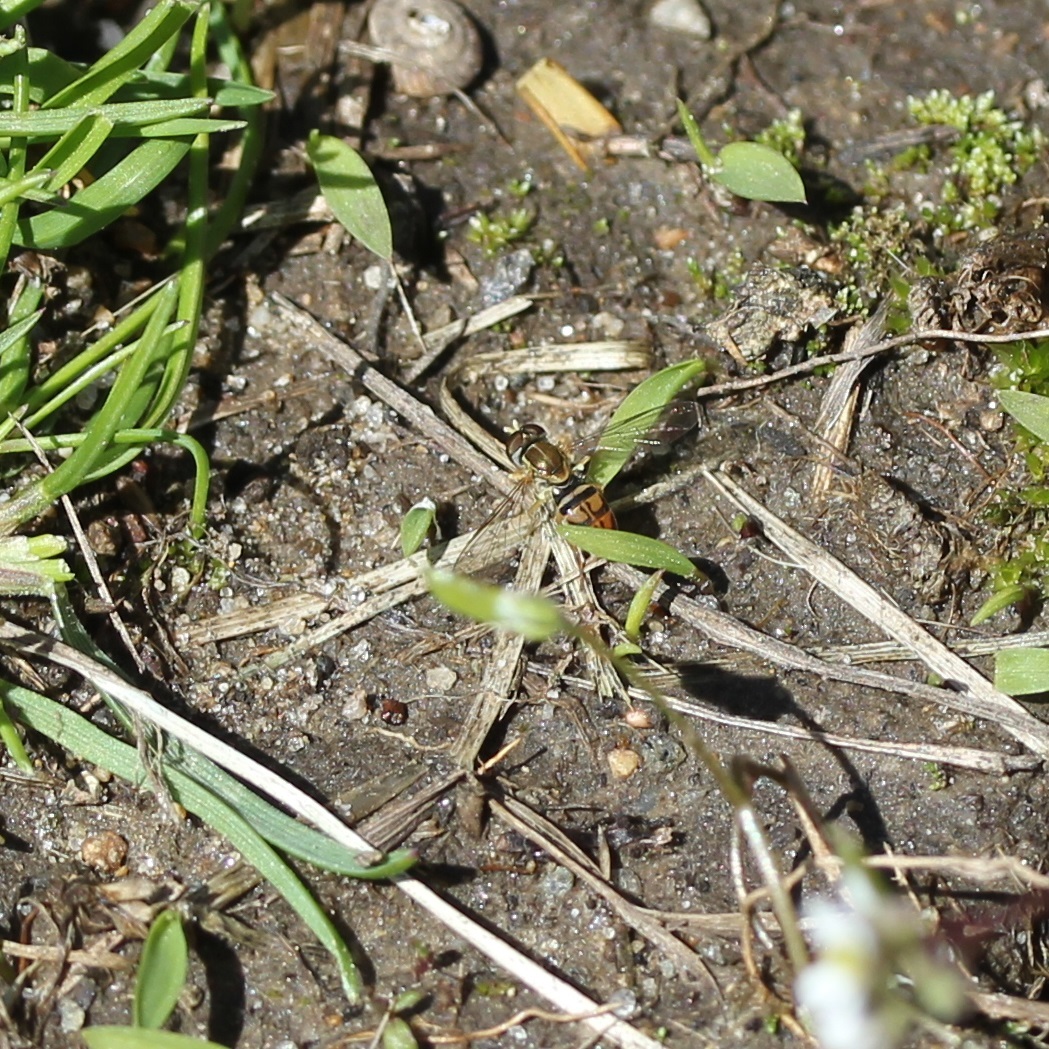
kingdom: Animalia
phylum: Arthropoda
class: Insecta
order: Diptera
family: Syrphidae
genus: Toxomerus
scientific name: Toxomerus marginatus
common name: Syrphid fly
